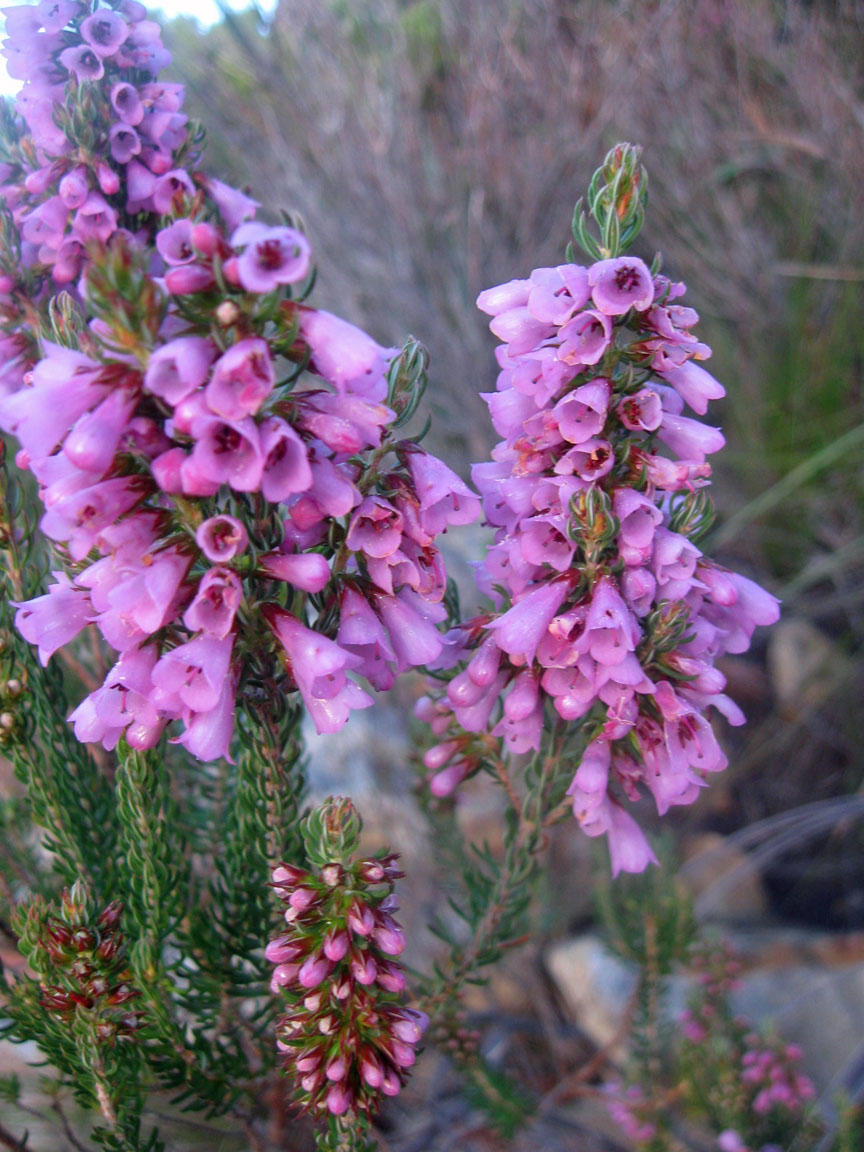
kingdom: Plantae
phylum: Tracheophyta
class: Magnoliopsida
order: Ericales
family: Ericaceae
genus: Erica
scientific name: Erica abietina
